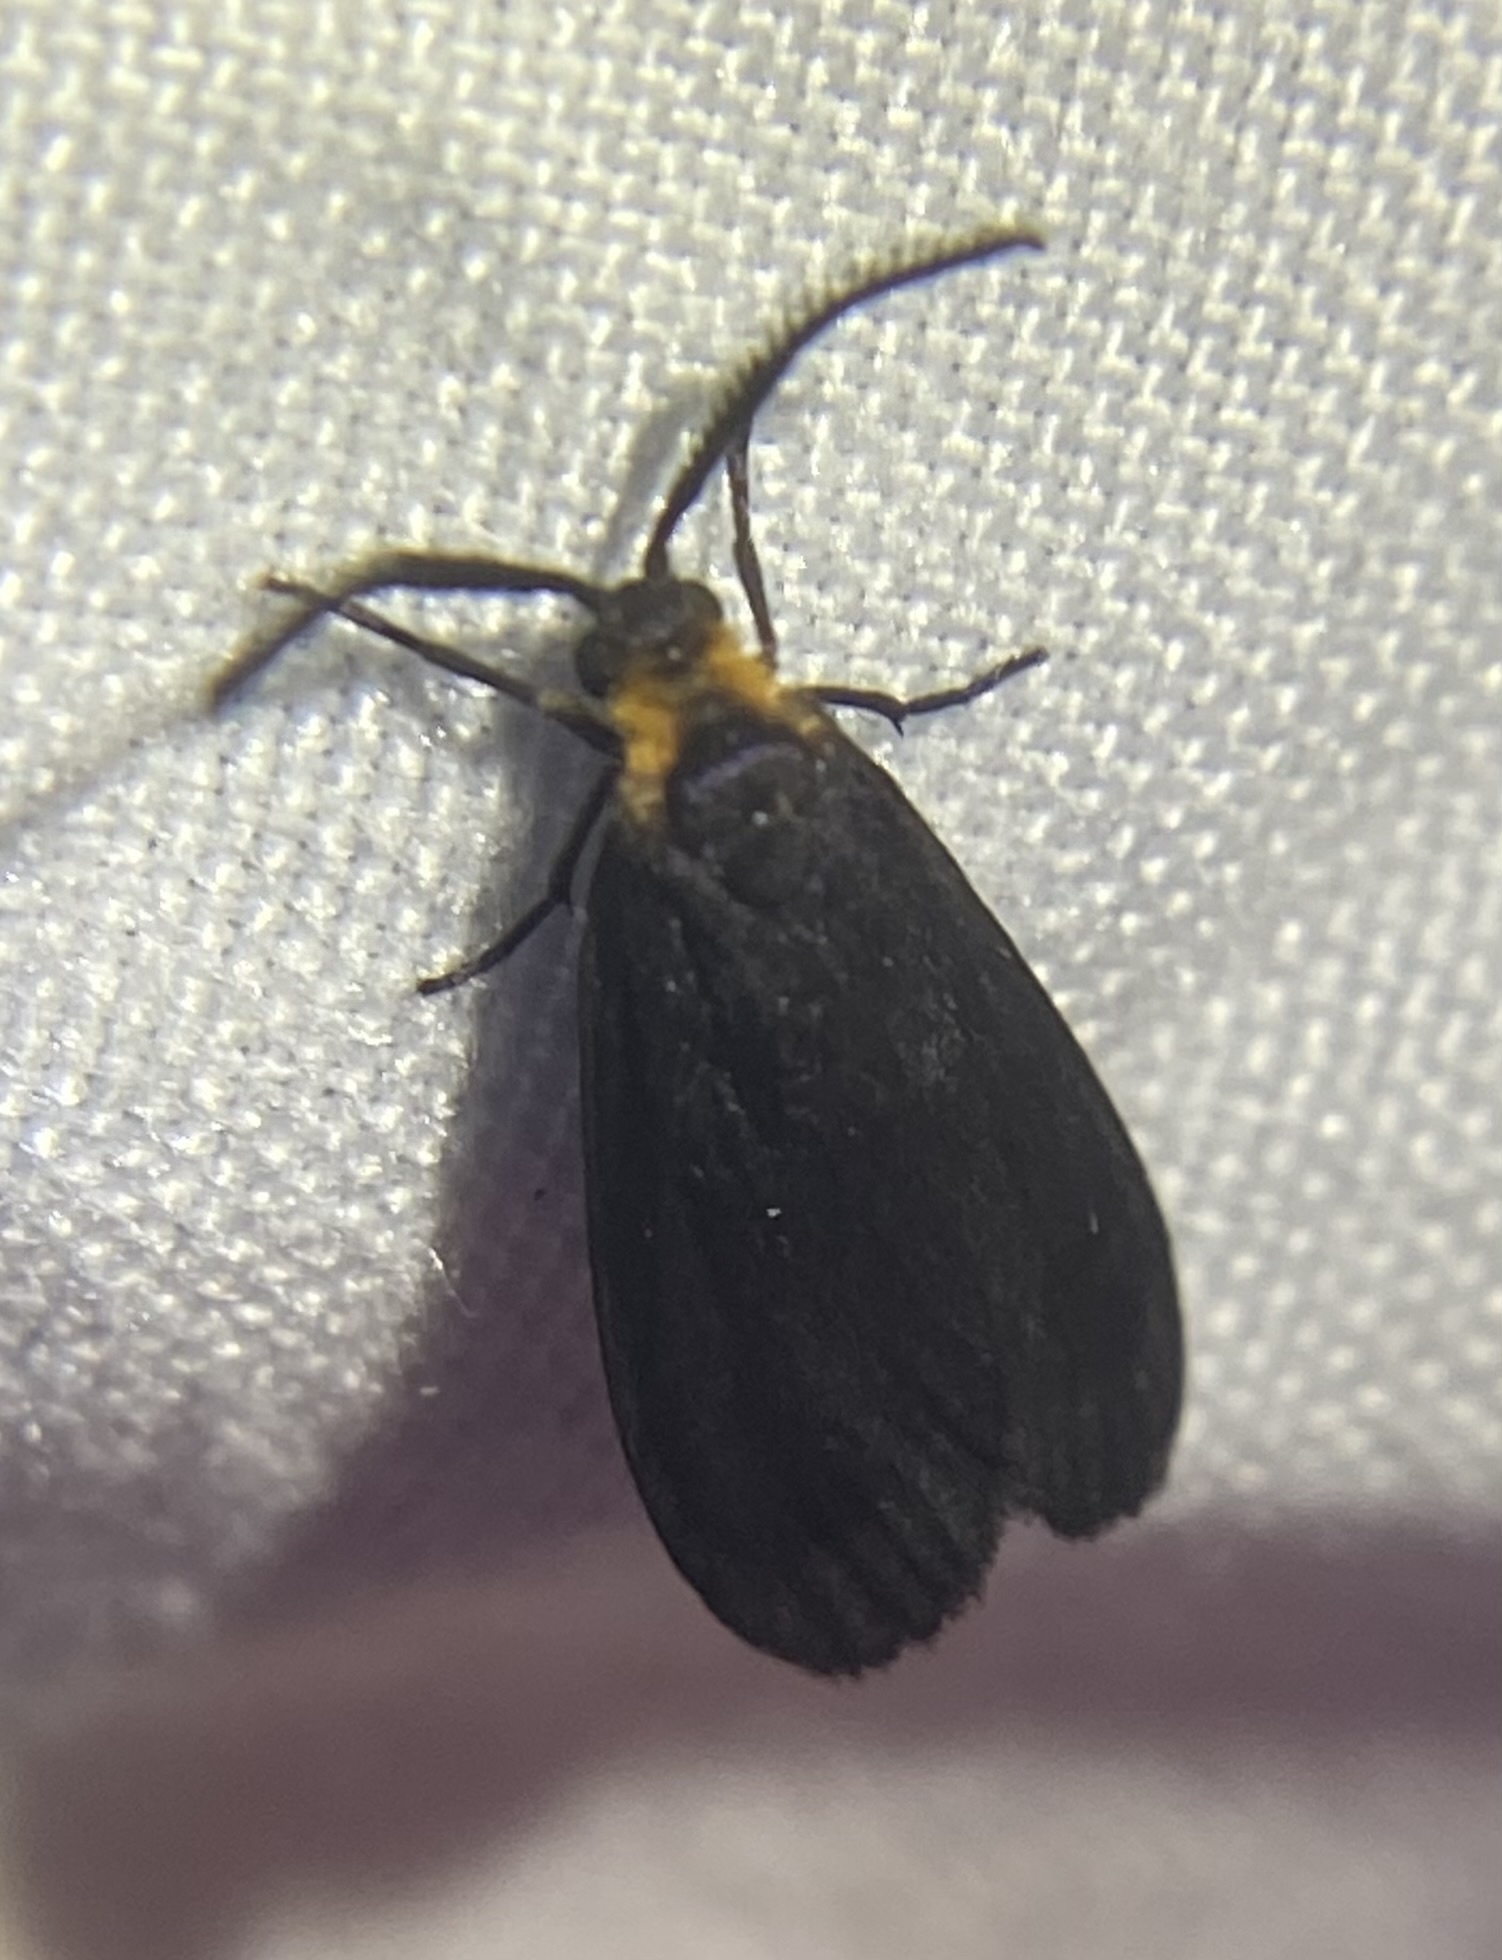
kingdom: Animalia
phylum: Arthropoda
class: Insecta
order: Lepidoptera
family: Zygaenidae
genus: Acoloithus
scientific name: Acoloithus falsarius
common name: Clemens' false skeletonizer
